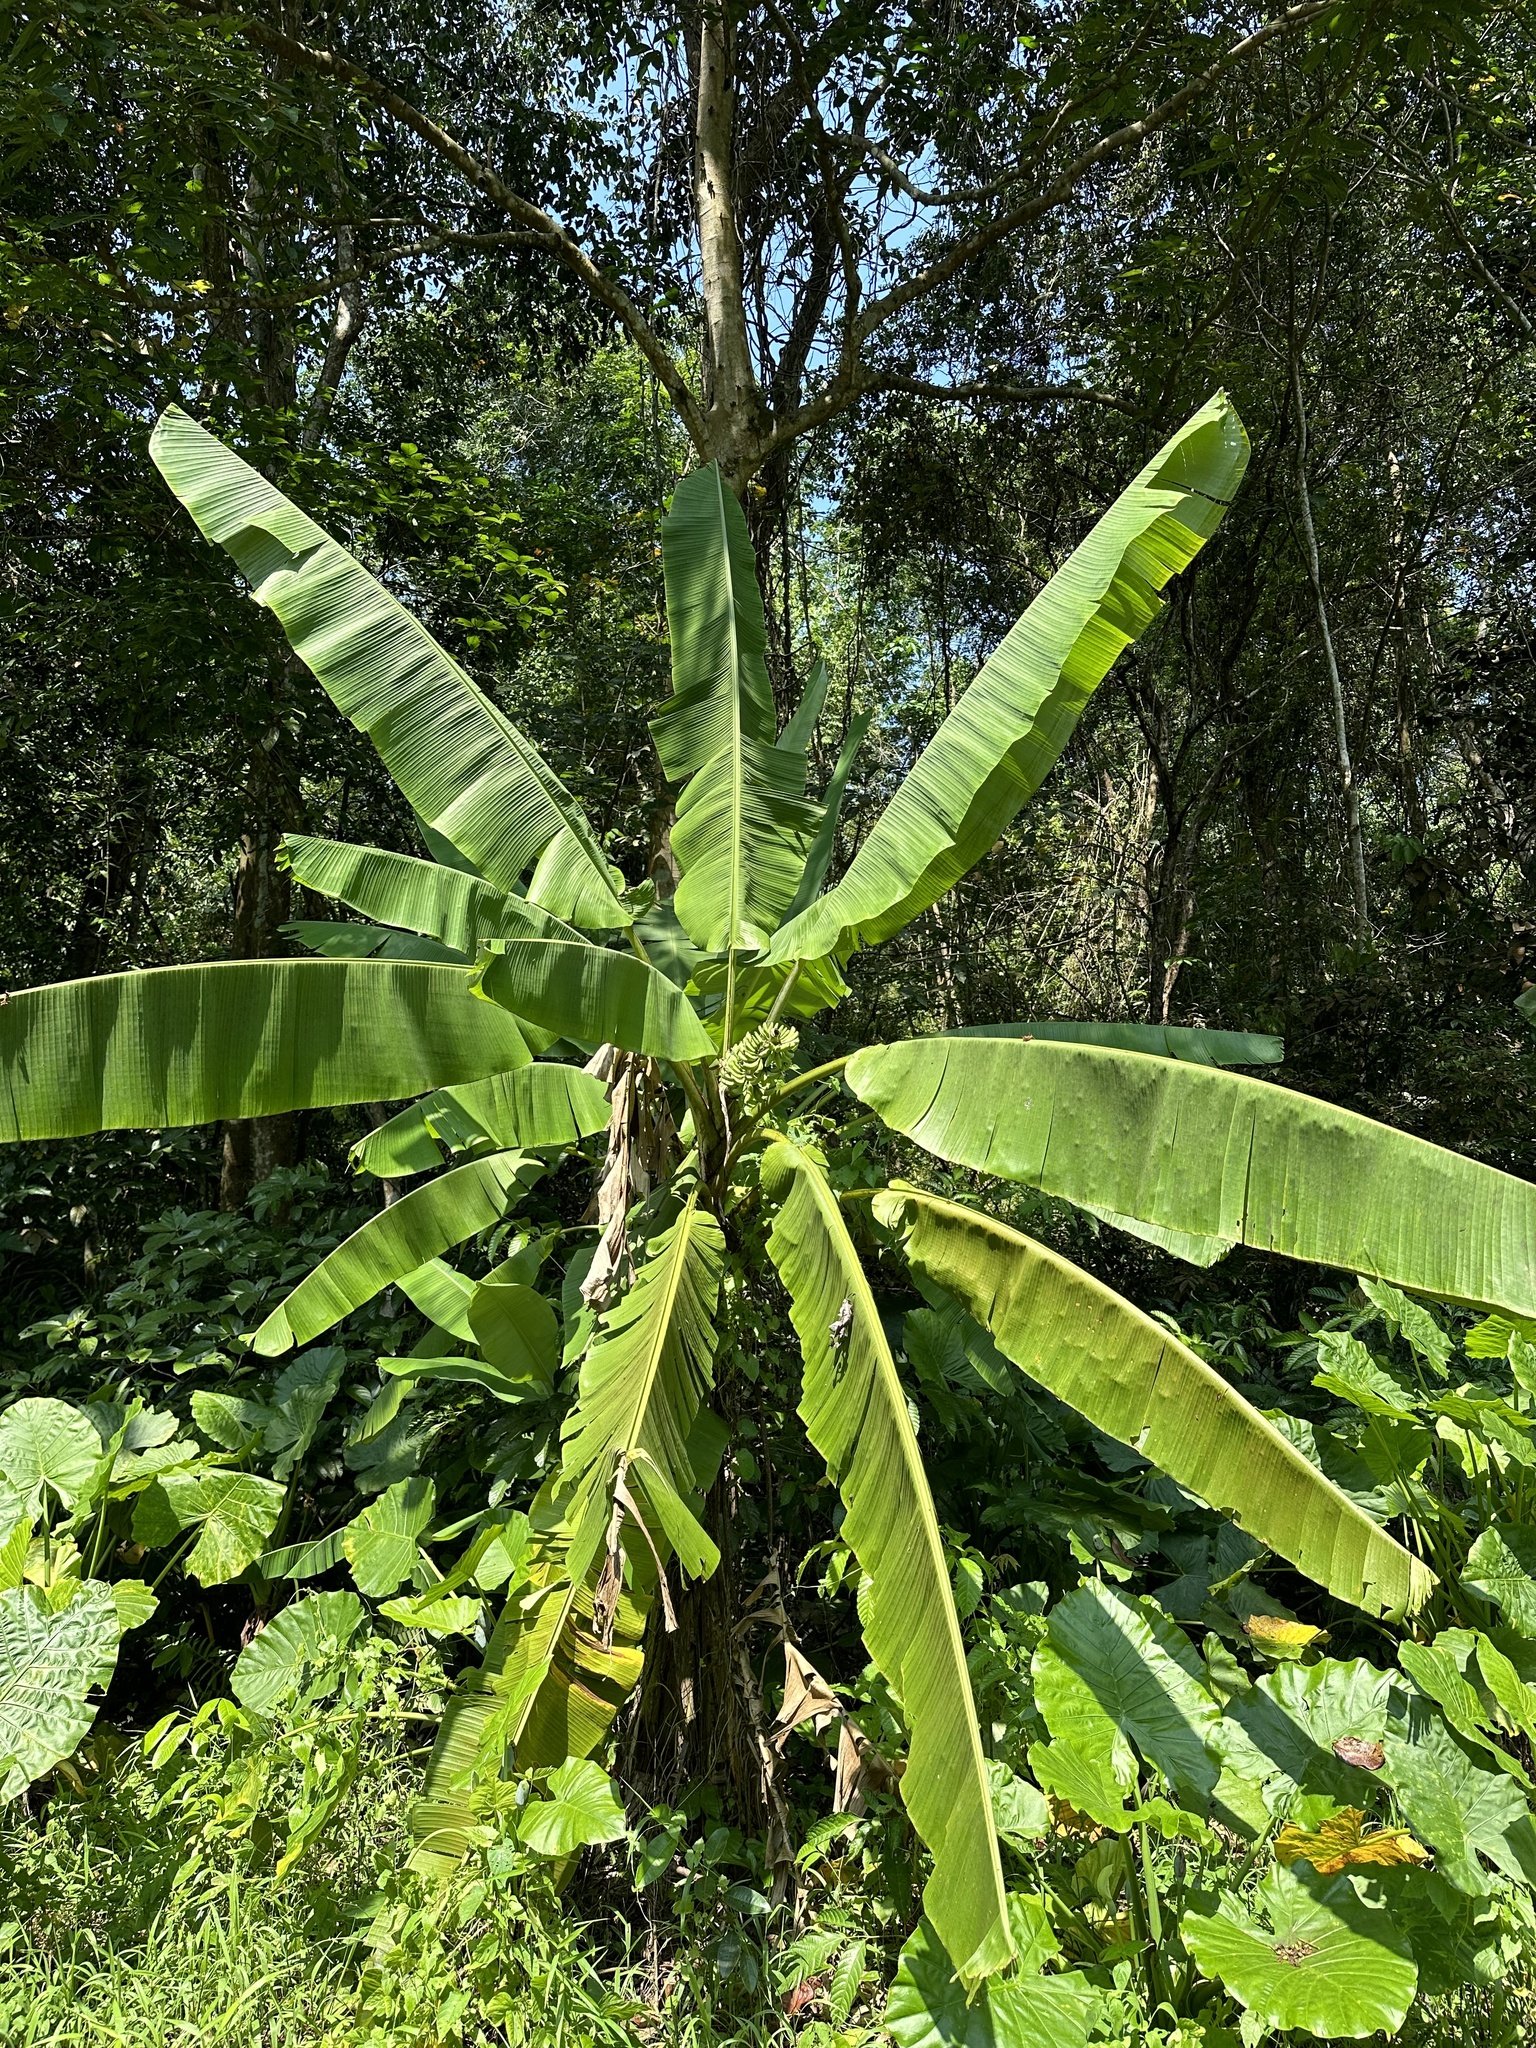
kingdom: Plantae
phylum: Tracheophyta
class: Liliopsida
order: Zingiberales
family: Musaceae
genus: Musa
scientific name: Musa acuminata
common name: Edible banana
